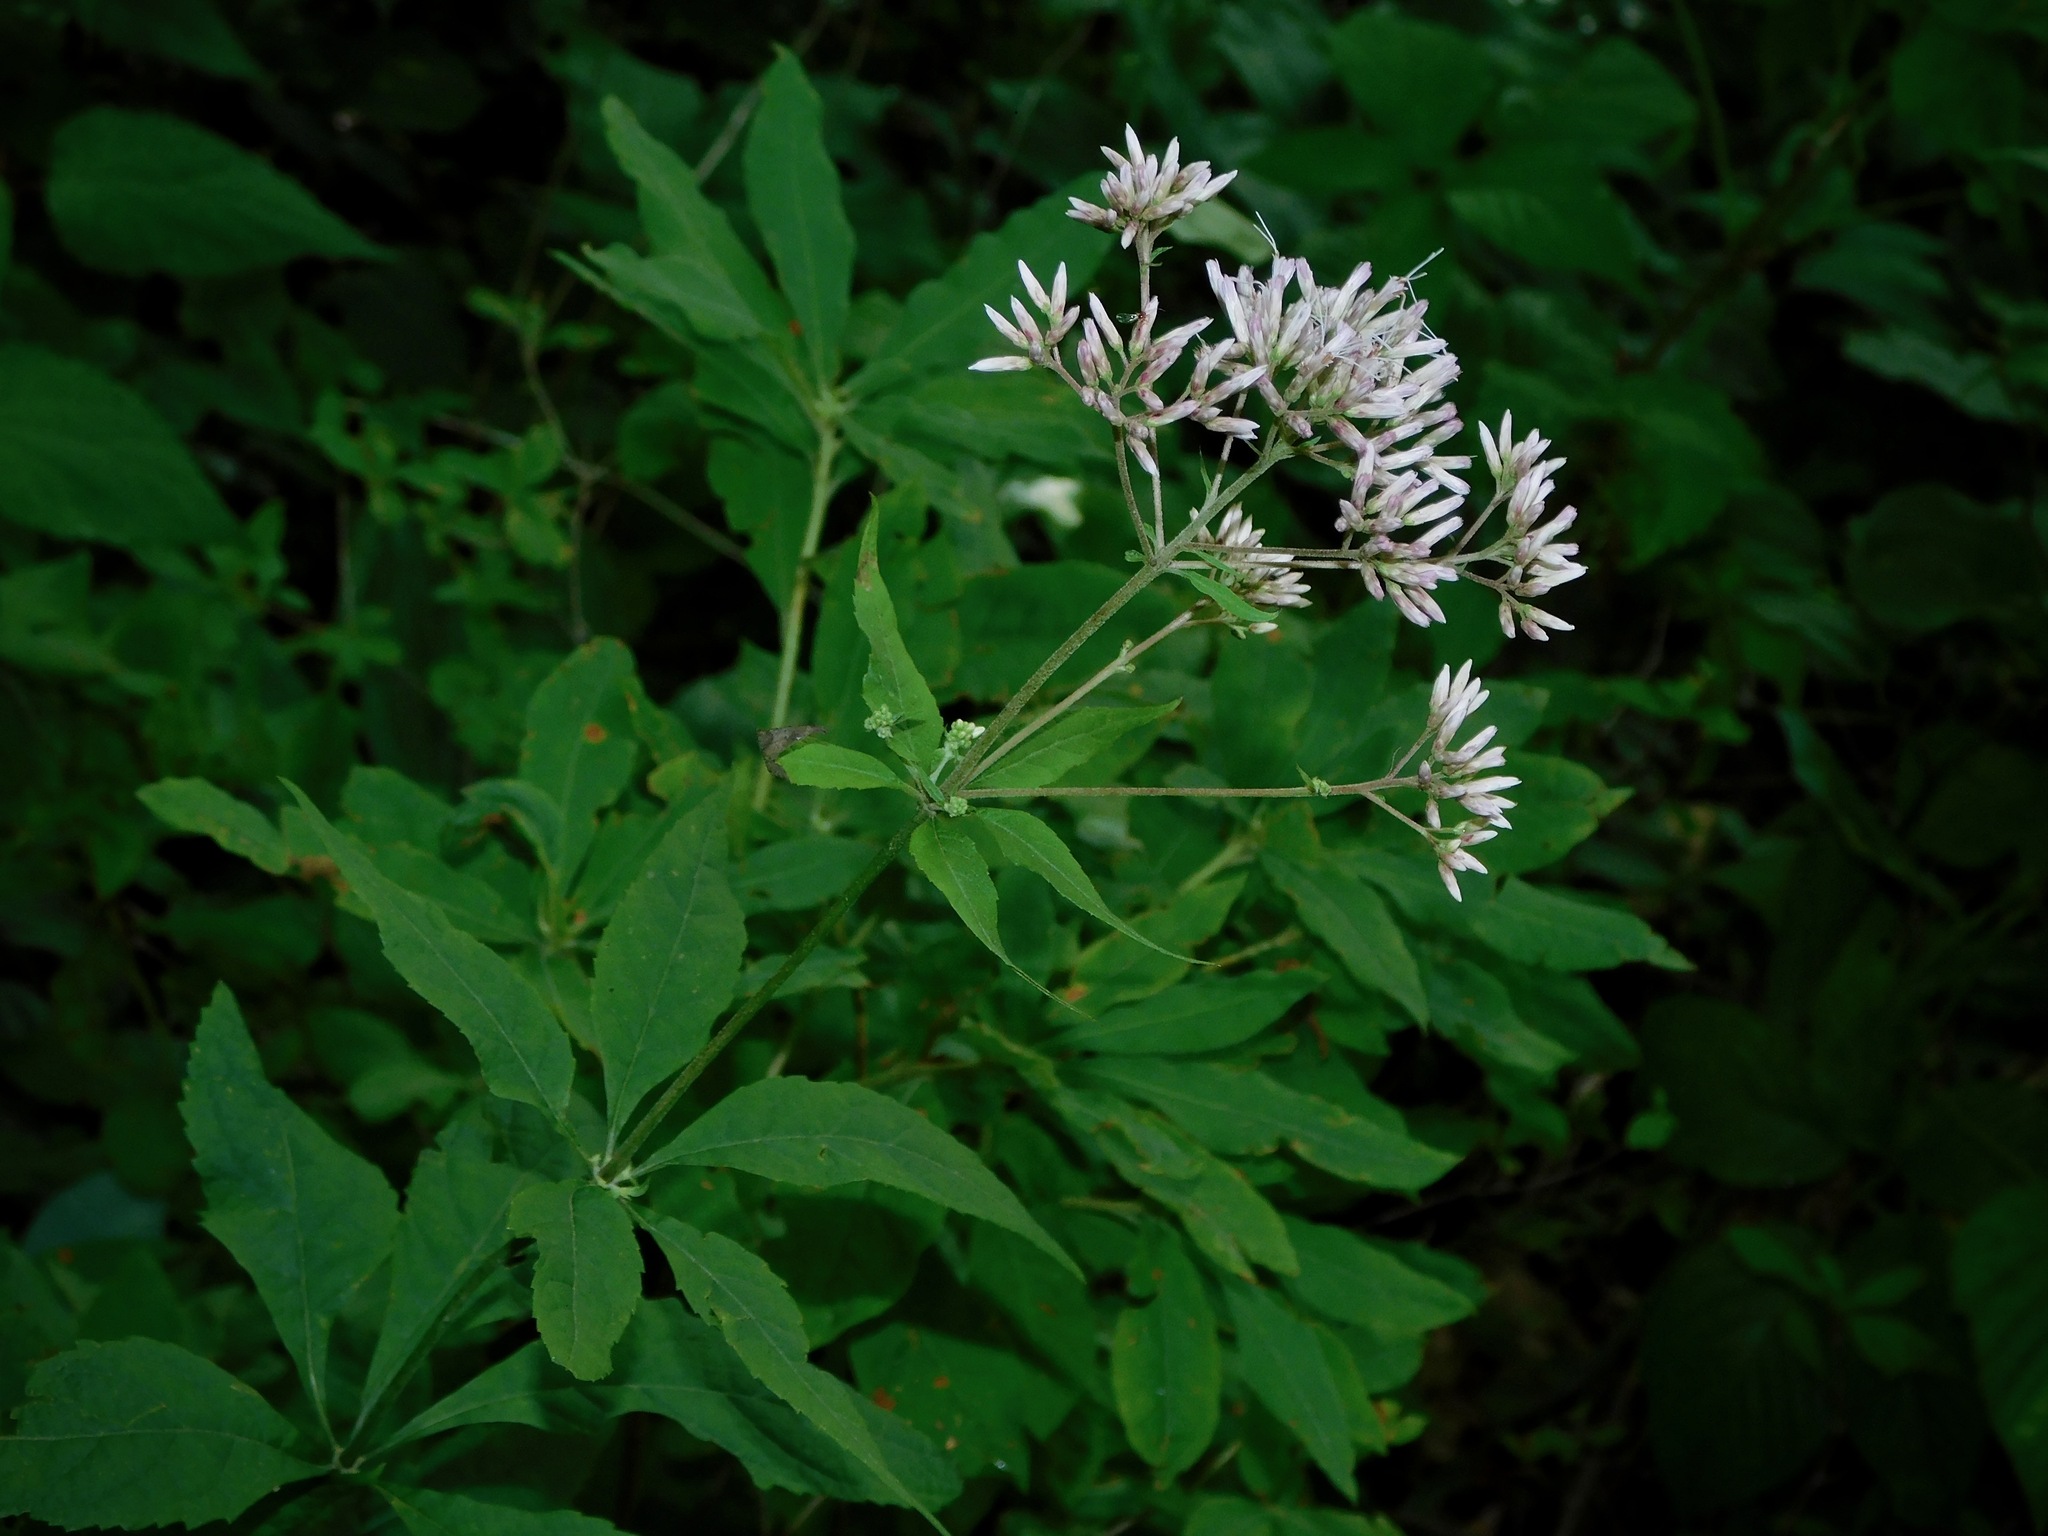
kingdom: Plantae
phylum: Tracheophyta
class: Magnoliopsida
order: Asterales
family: Asteraceae
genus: Eutrochium
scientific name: Eutrochium purpureum
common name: Gravelroot
